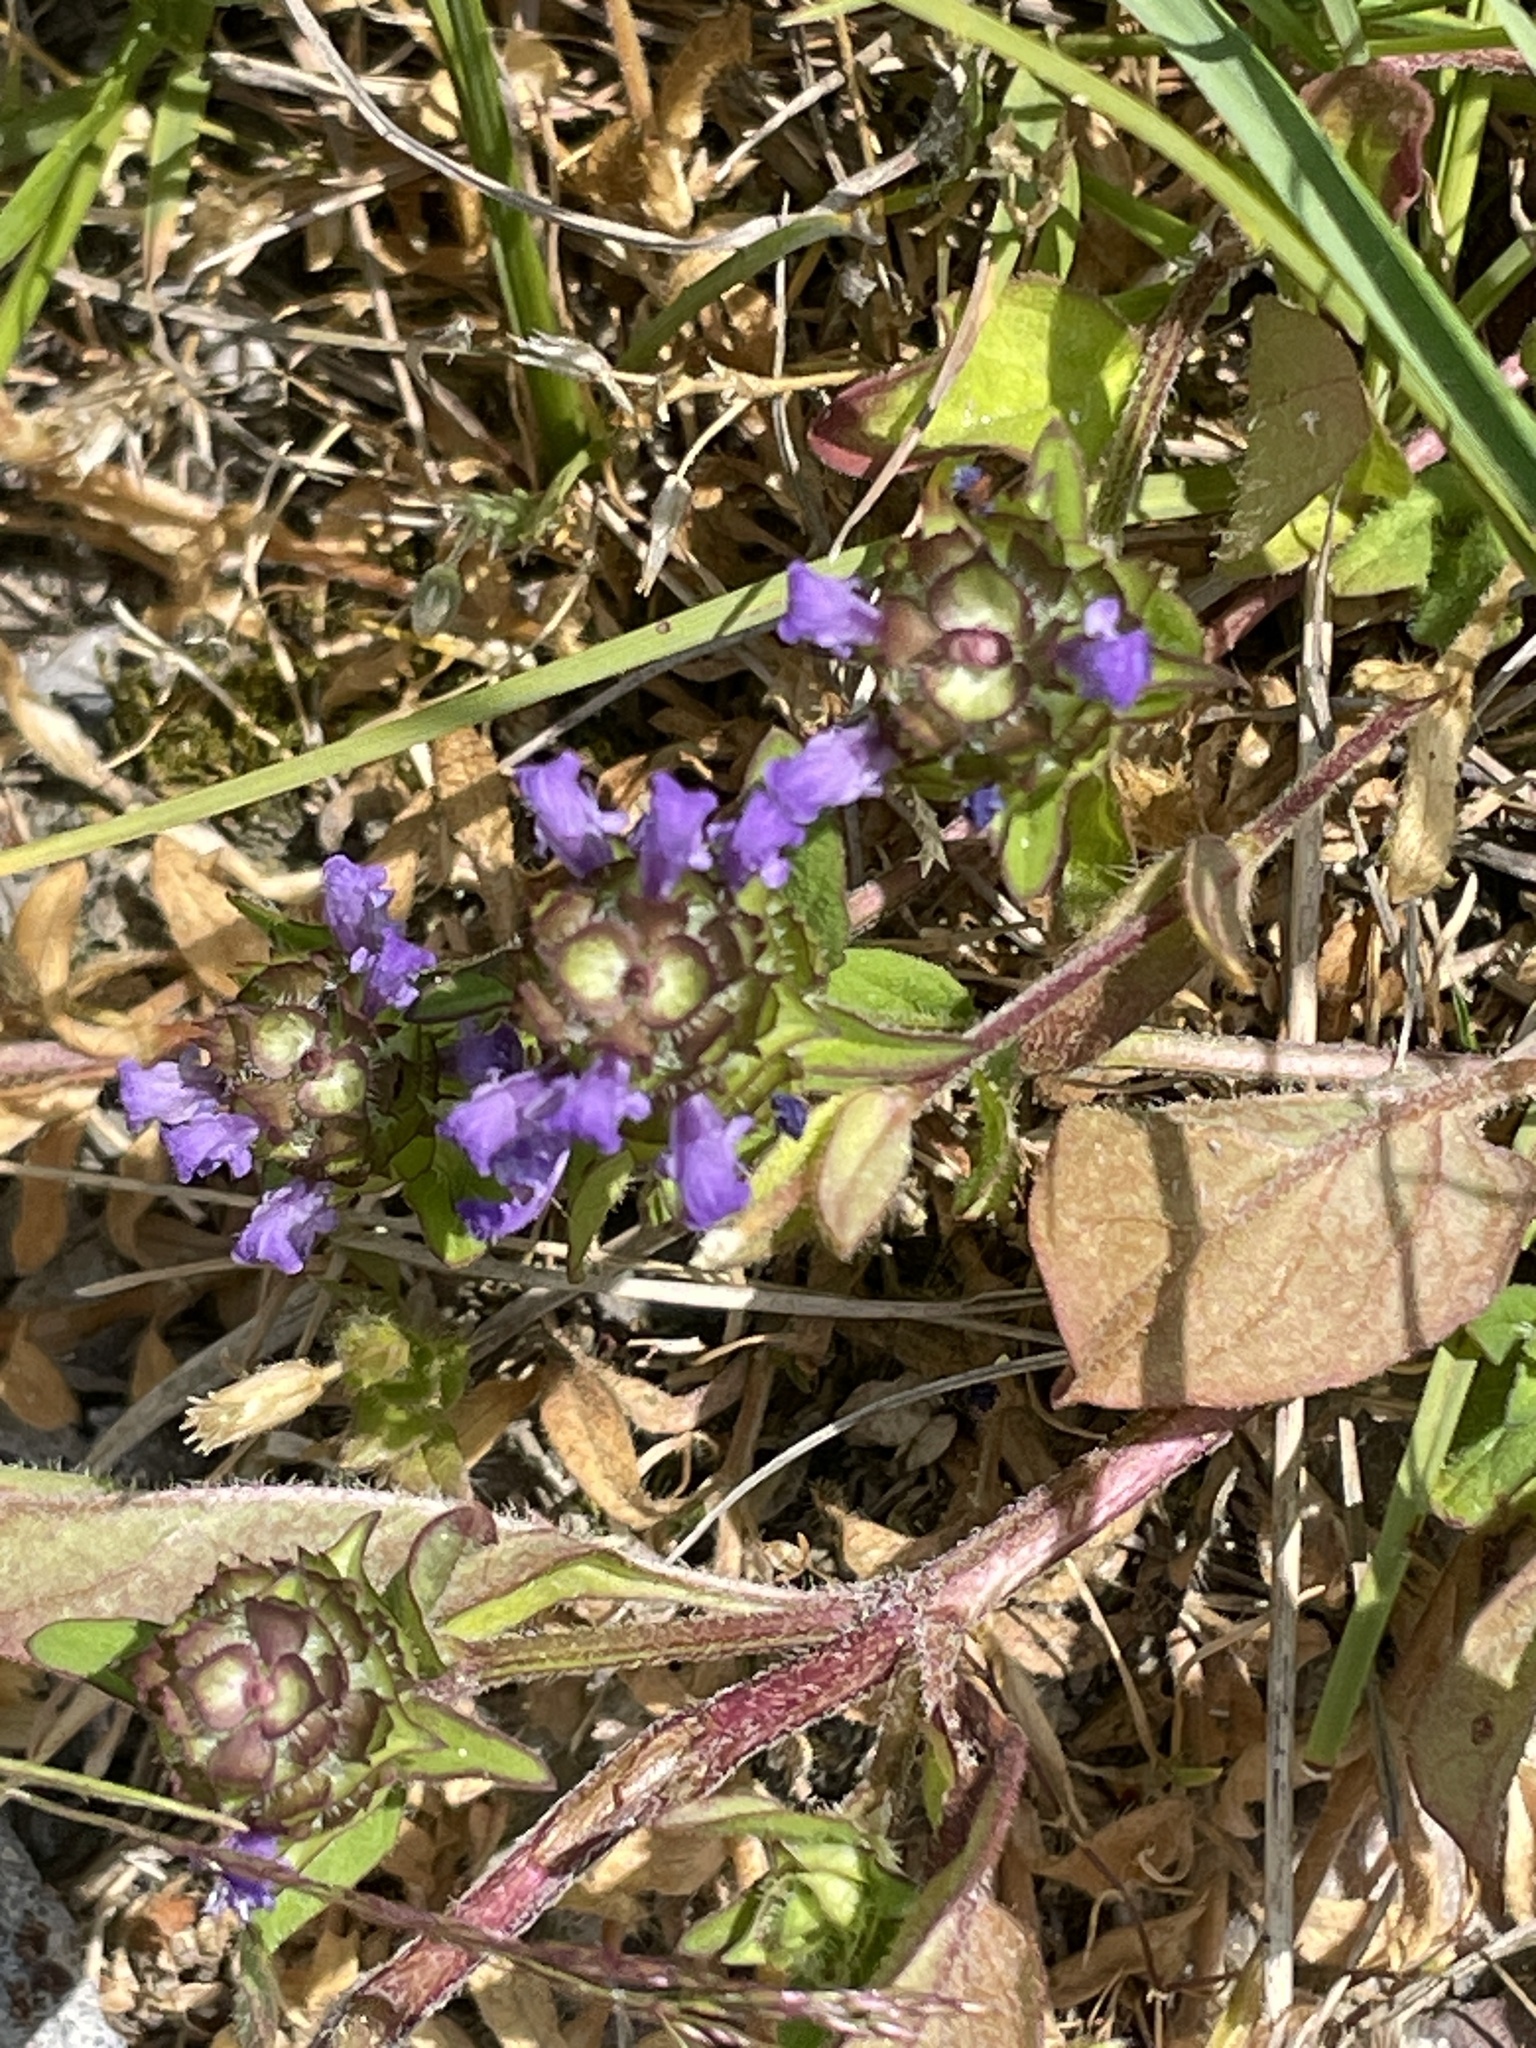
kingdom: Plantae
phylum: Tracheophyta
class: Magnoliopsida
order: Lamiales
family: Lamiaceae
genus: Prunella
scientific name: Prunella vulgaris
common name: Heal-all
